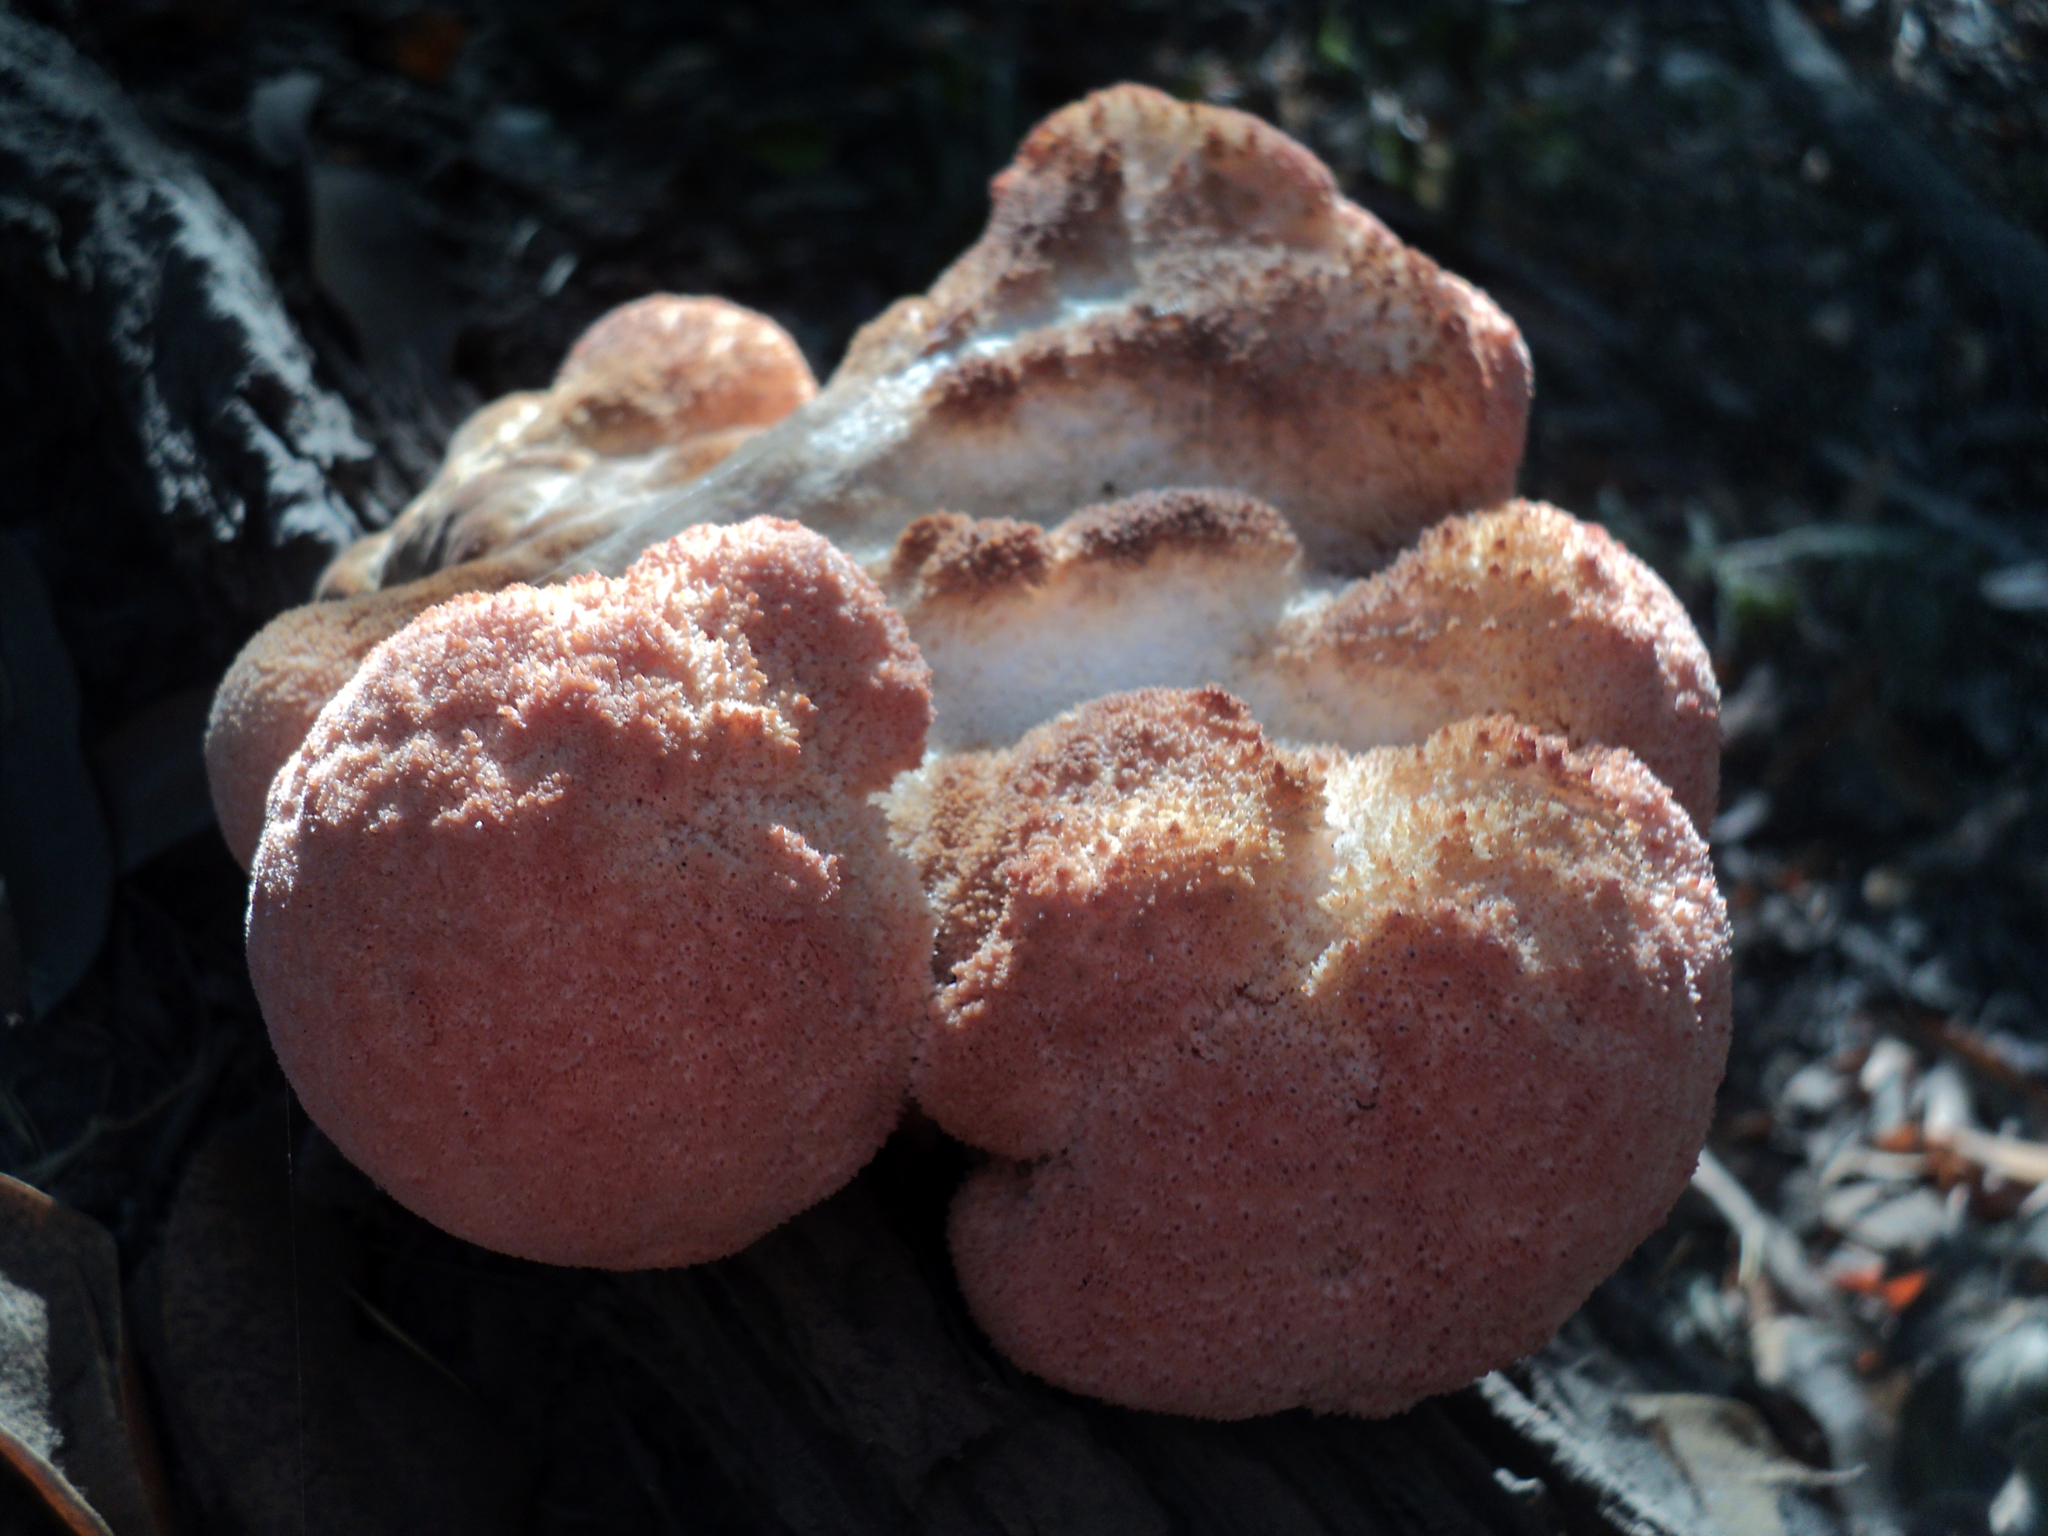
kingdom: Fungi
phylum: Basidiomycota
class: Agaricomycetes
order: Russulales
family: Hericiaceae
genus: Hericium
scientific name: Hericium erinaceus
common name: Bearded tooth
